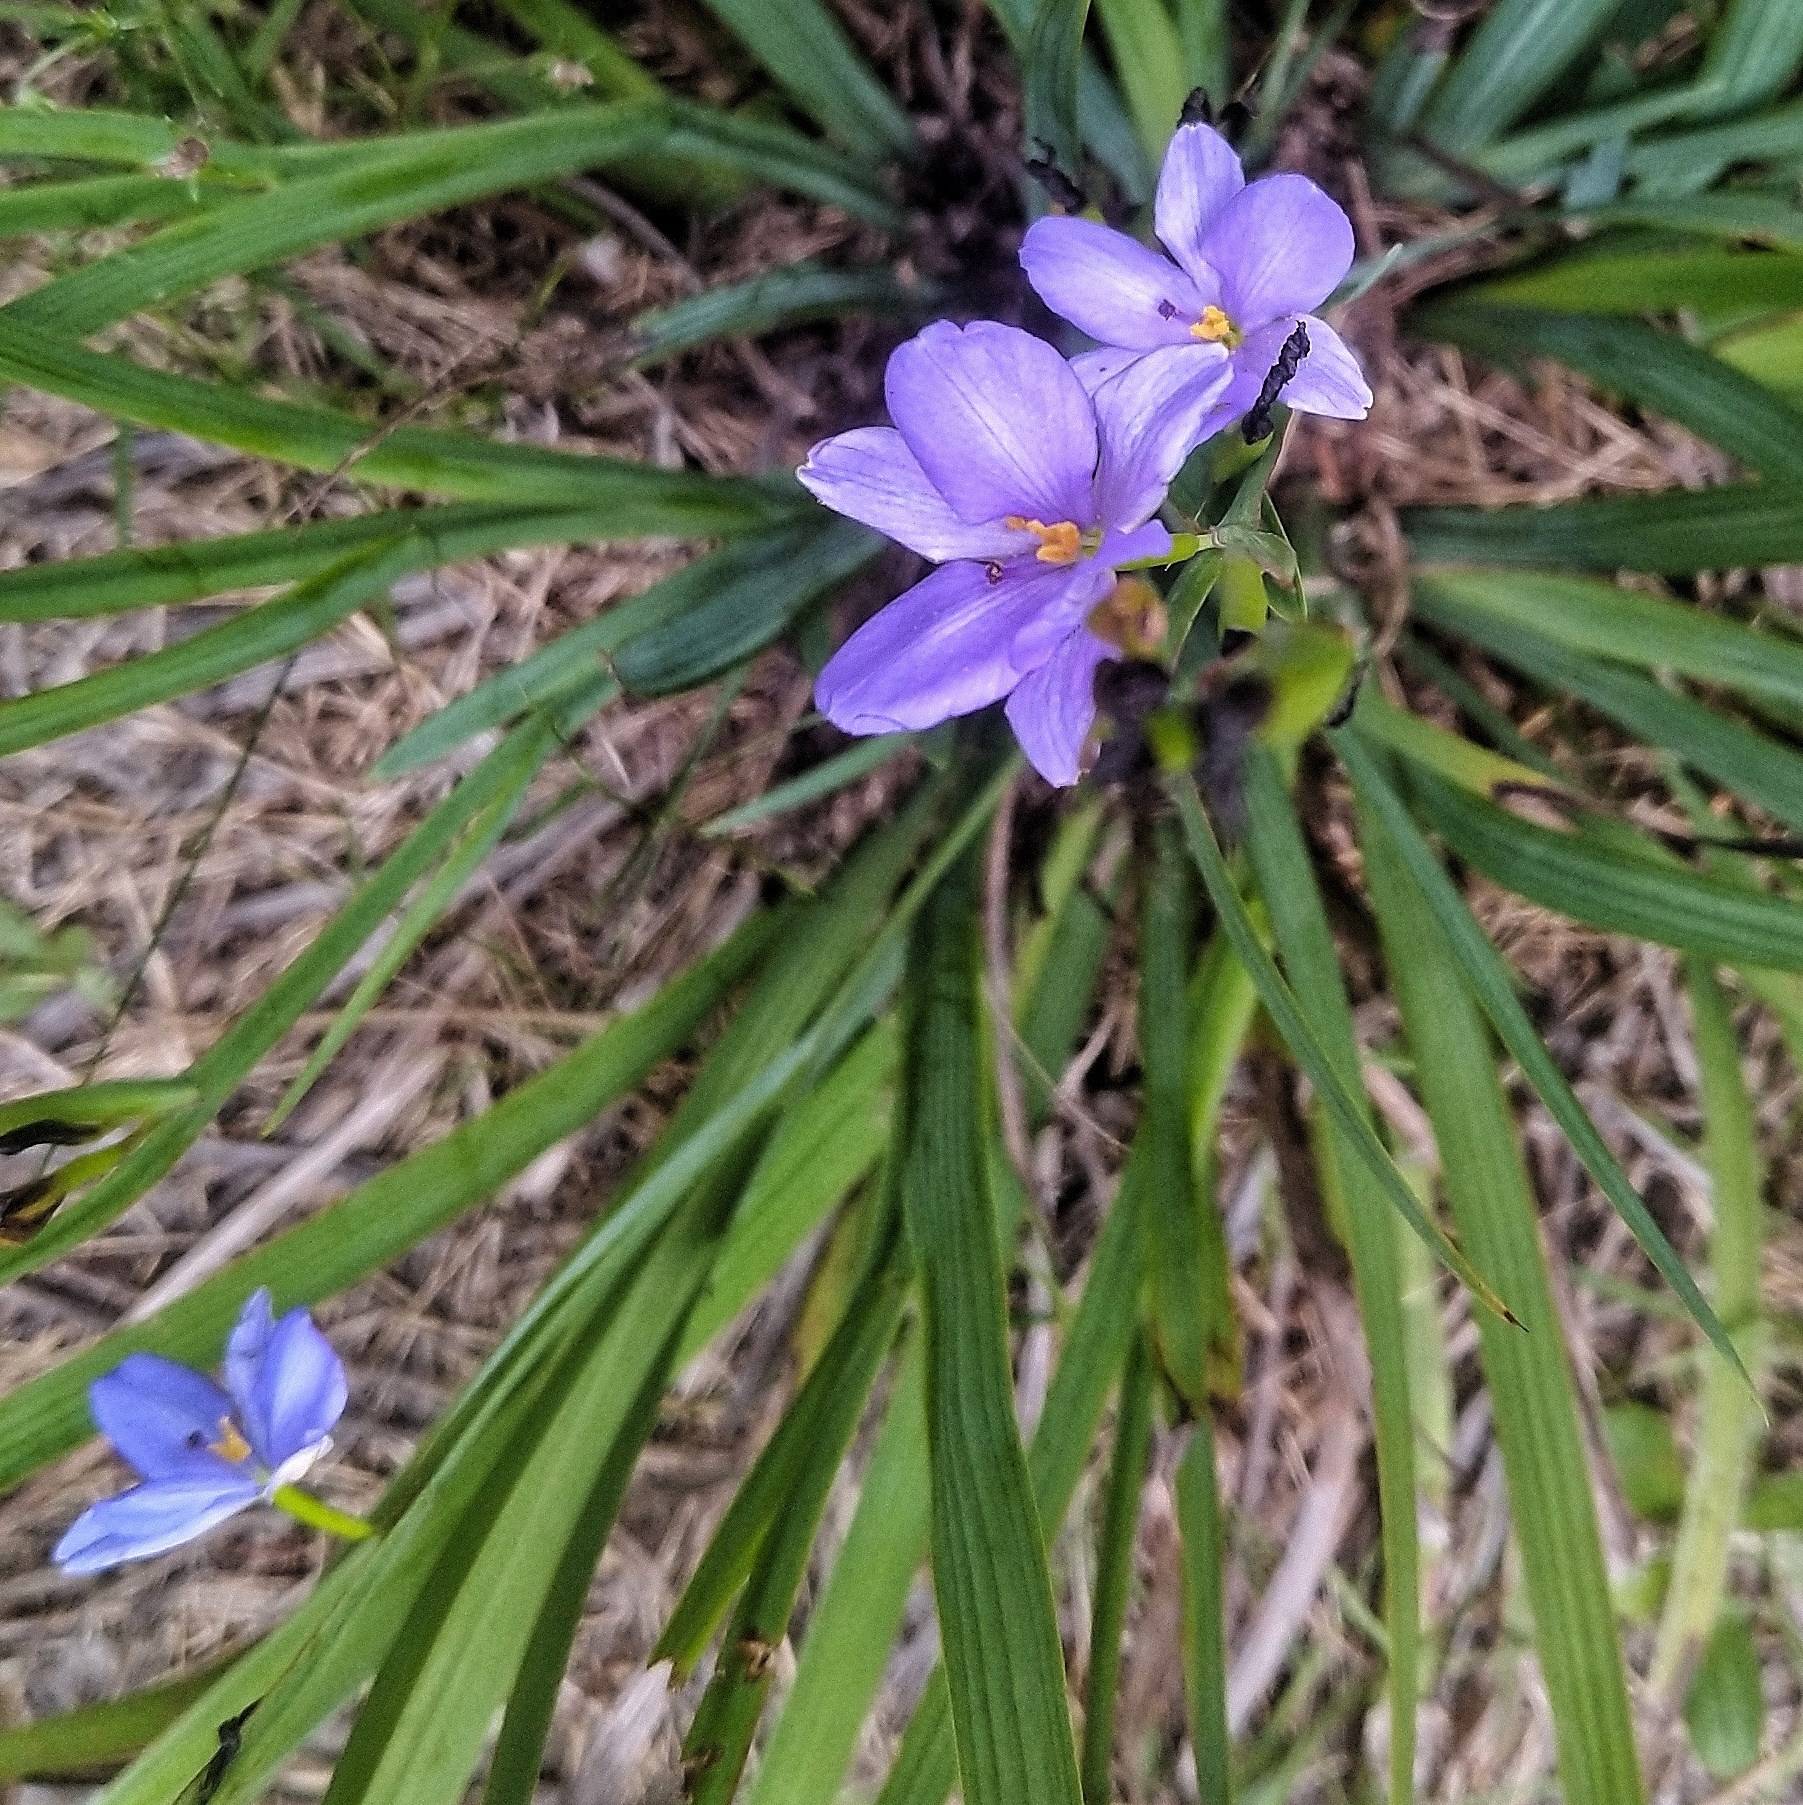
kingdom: Plantae
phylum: Tracheophyta
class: Liliopsida
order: Asparagales
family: Iridaceae
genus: Aristea
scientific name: Aristea pusilla
